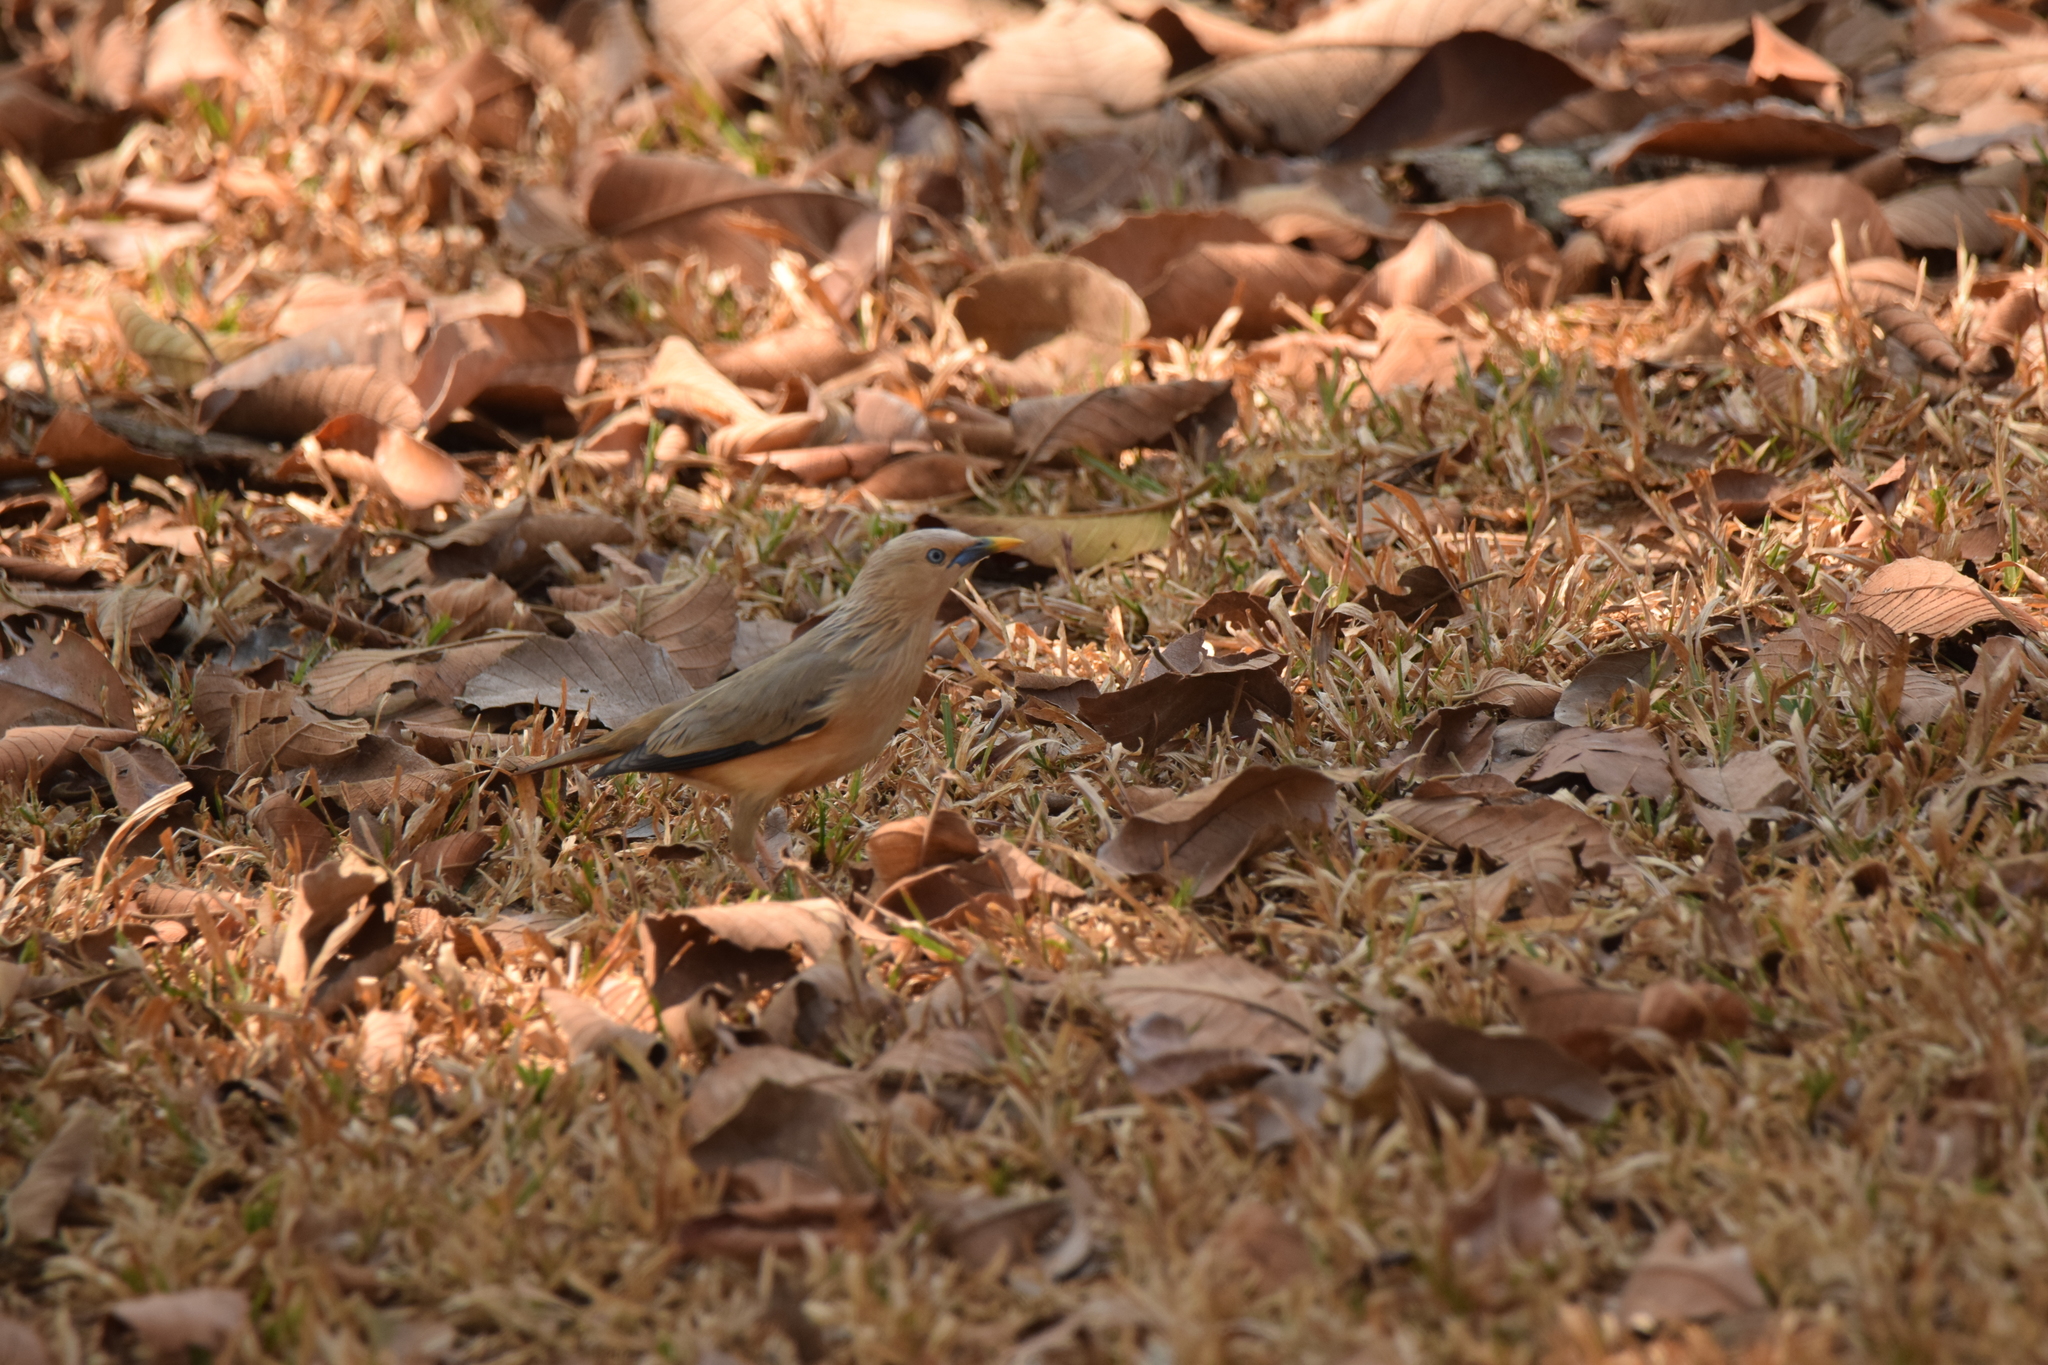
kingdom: Animalia
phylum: Chordata
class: Aves
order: Passeriformes
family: Sturnidae
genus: Sturnia
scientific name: Sturnia malabarica
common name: Chestnut-tailed starling
